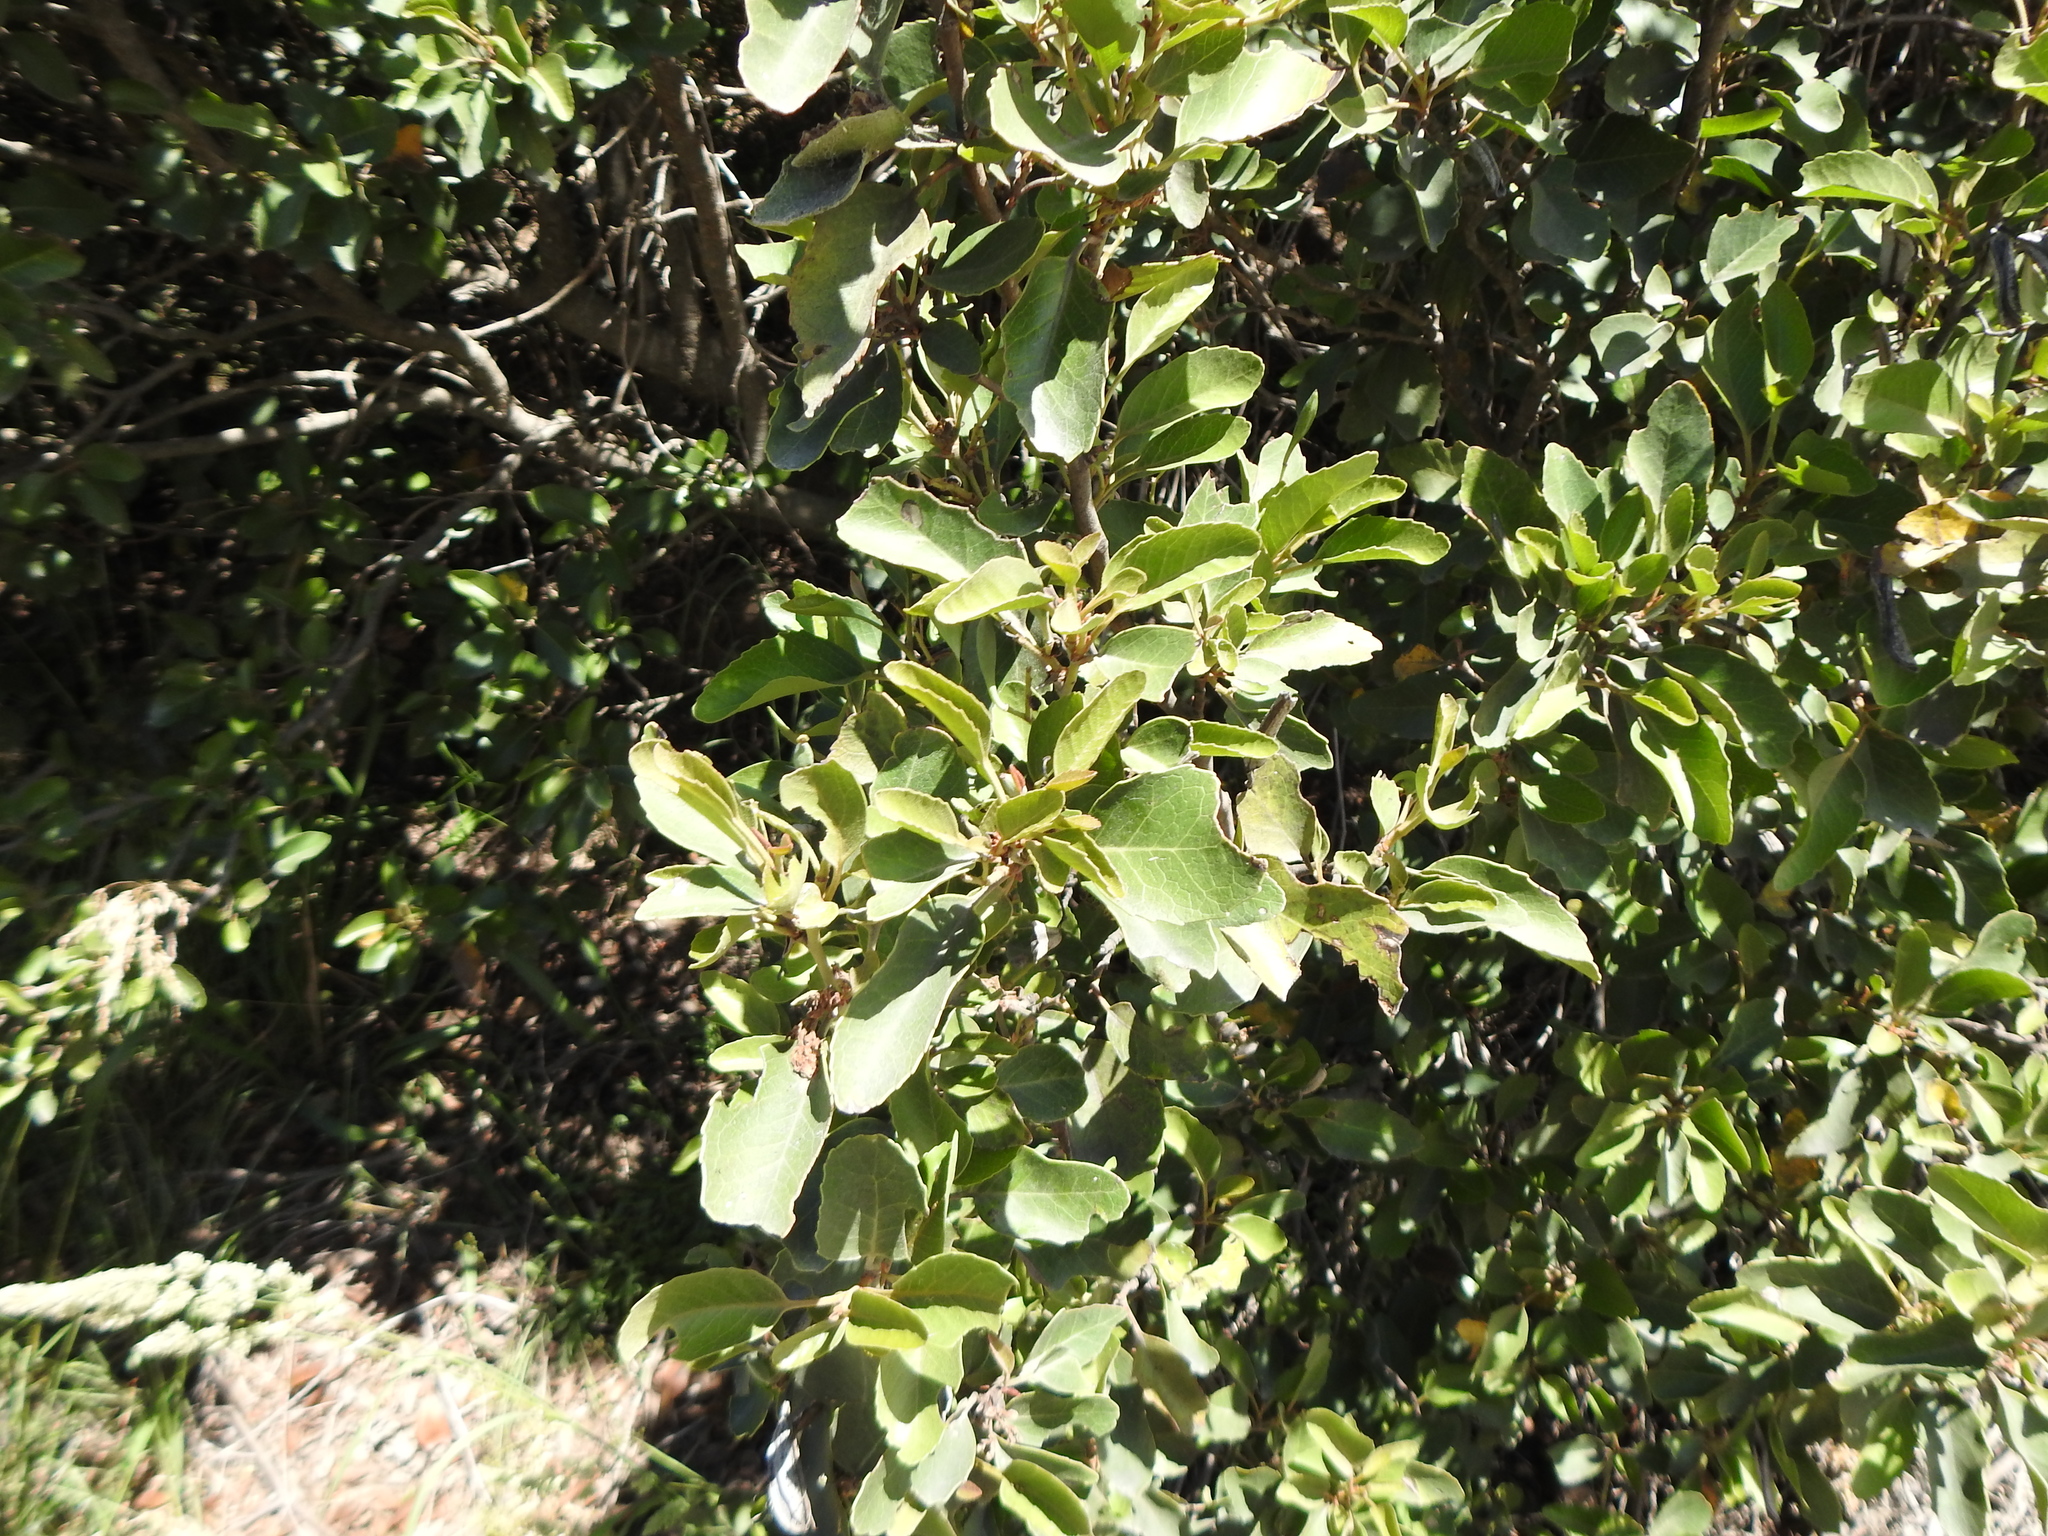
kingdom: Plantae
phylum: Tracheophyta
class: Magnoliopsida
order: Proteales
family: Proteaceae
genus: Lomatia
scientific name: Lomatia hirsuta
